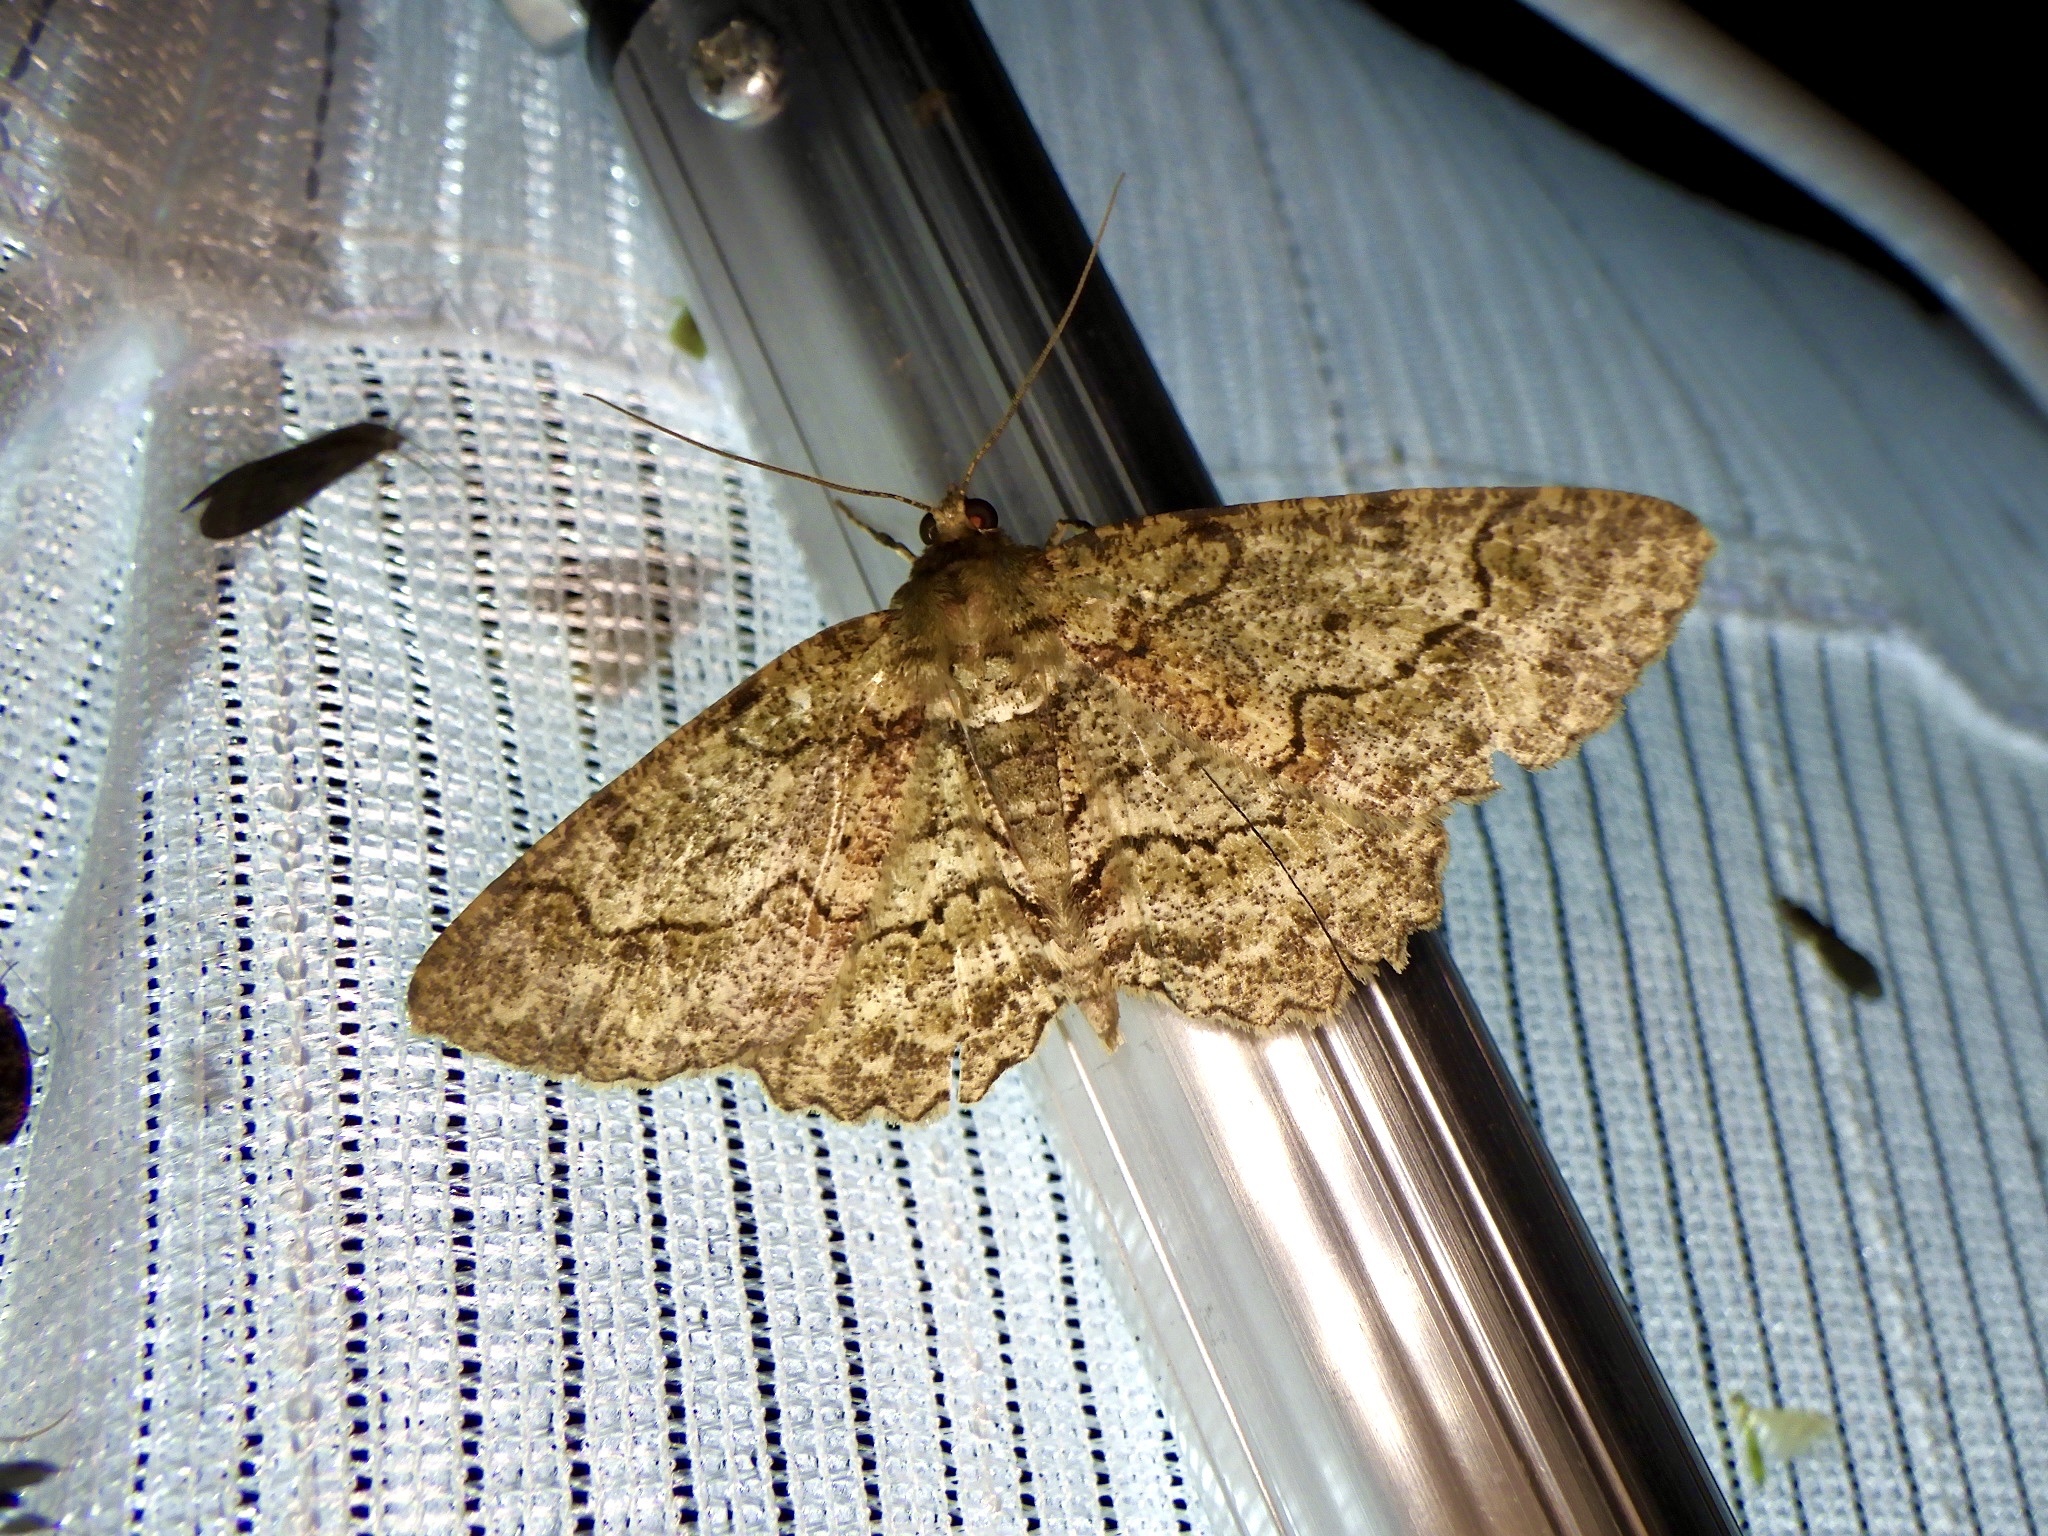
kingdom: Animalia
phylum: Arthropoda
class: Insecta
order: Lepidoptera
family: Geometridae
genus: Paradarisa
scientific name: Paradarisa chloauges
